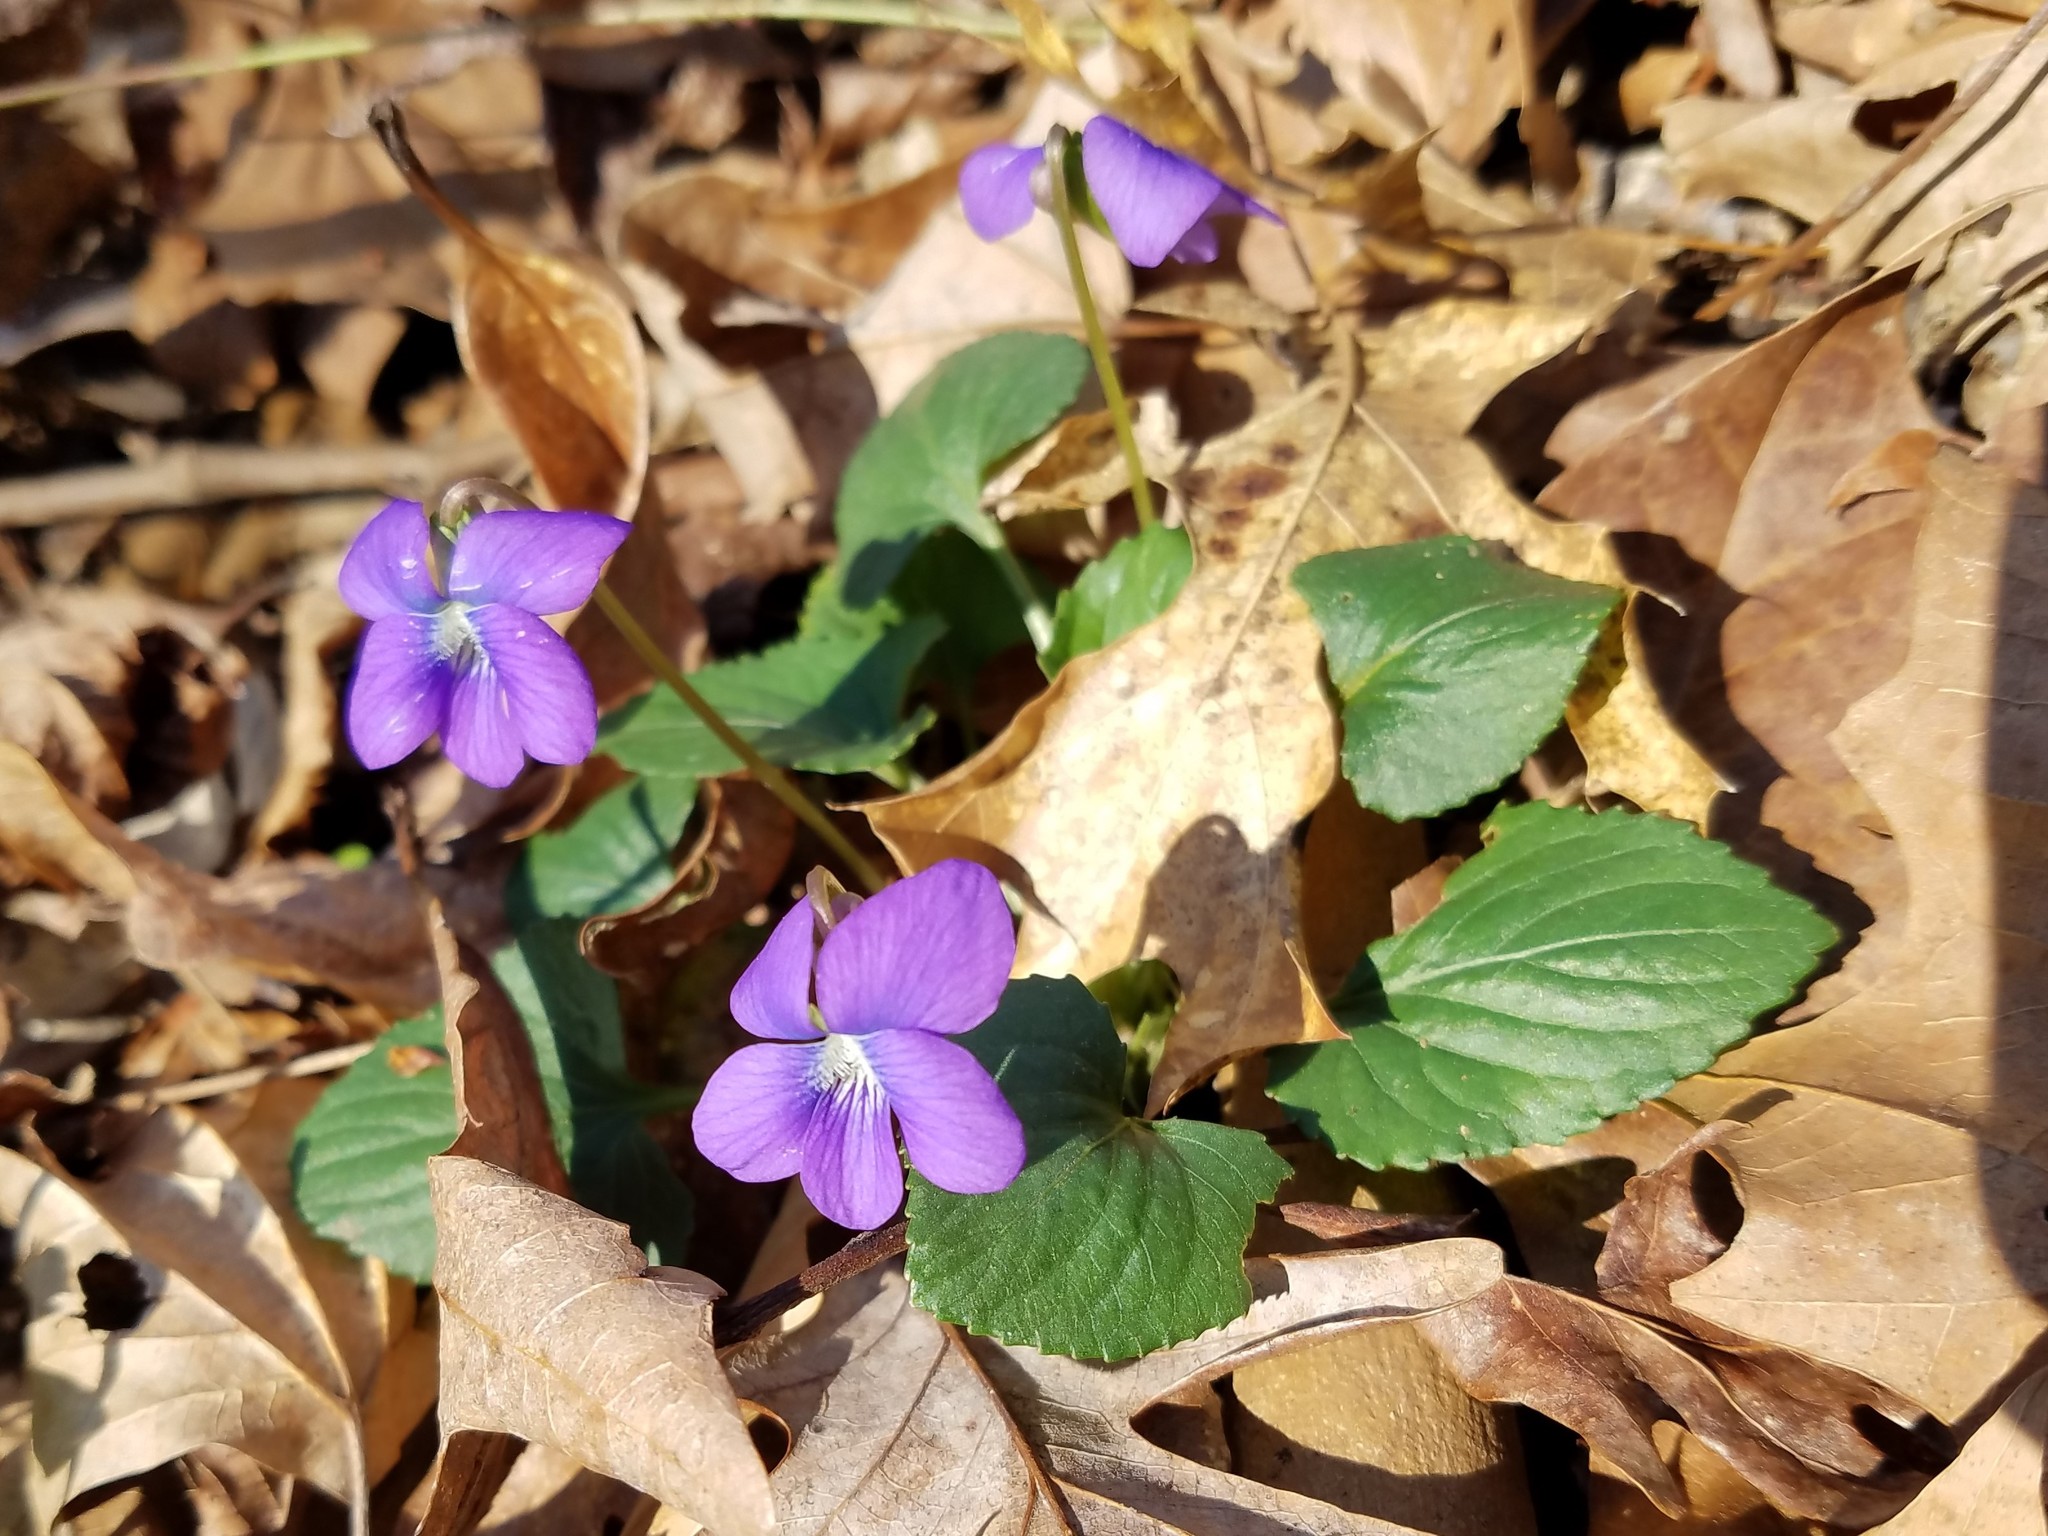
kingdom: Plantae
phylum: Tracheophyta
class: Magnoliopsida
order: Malpighiales
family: Violaceae
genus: Viola
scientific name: Viola sororia
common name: Dooryard violet
